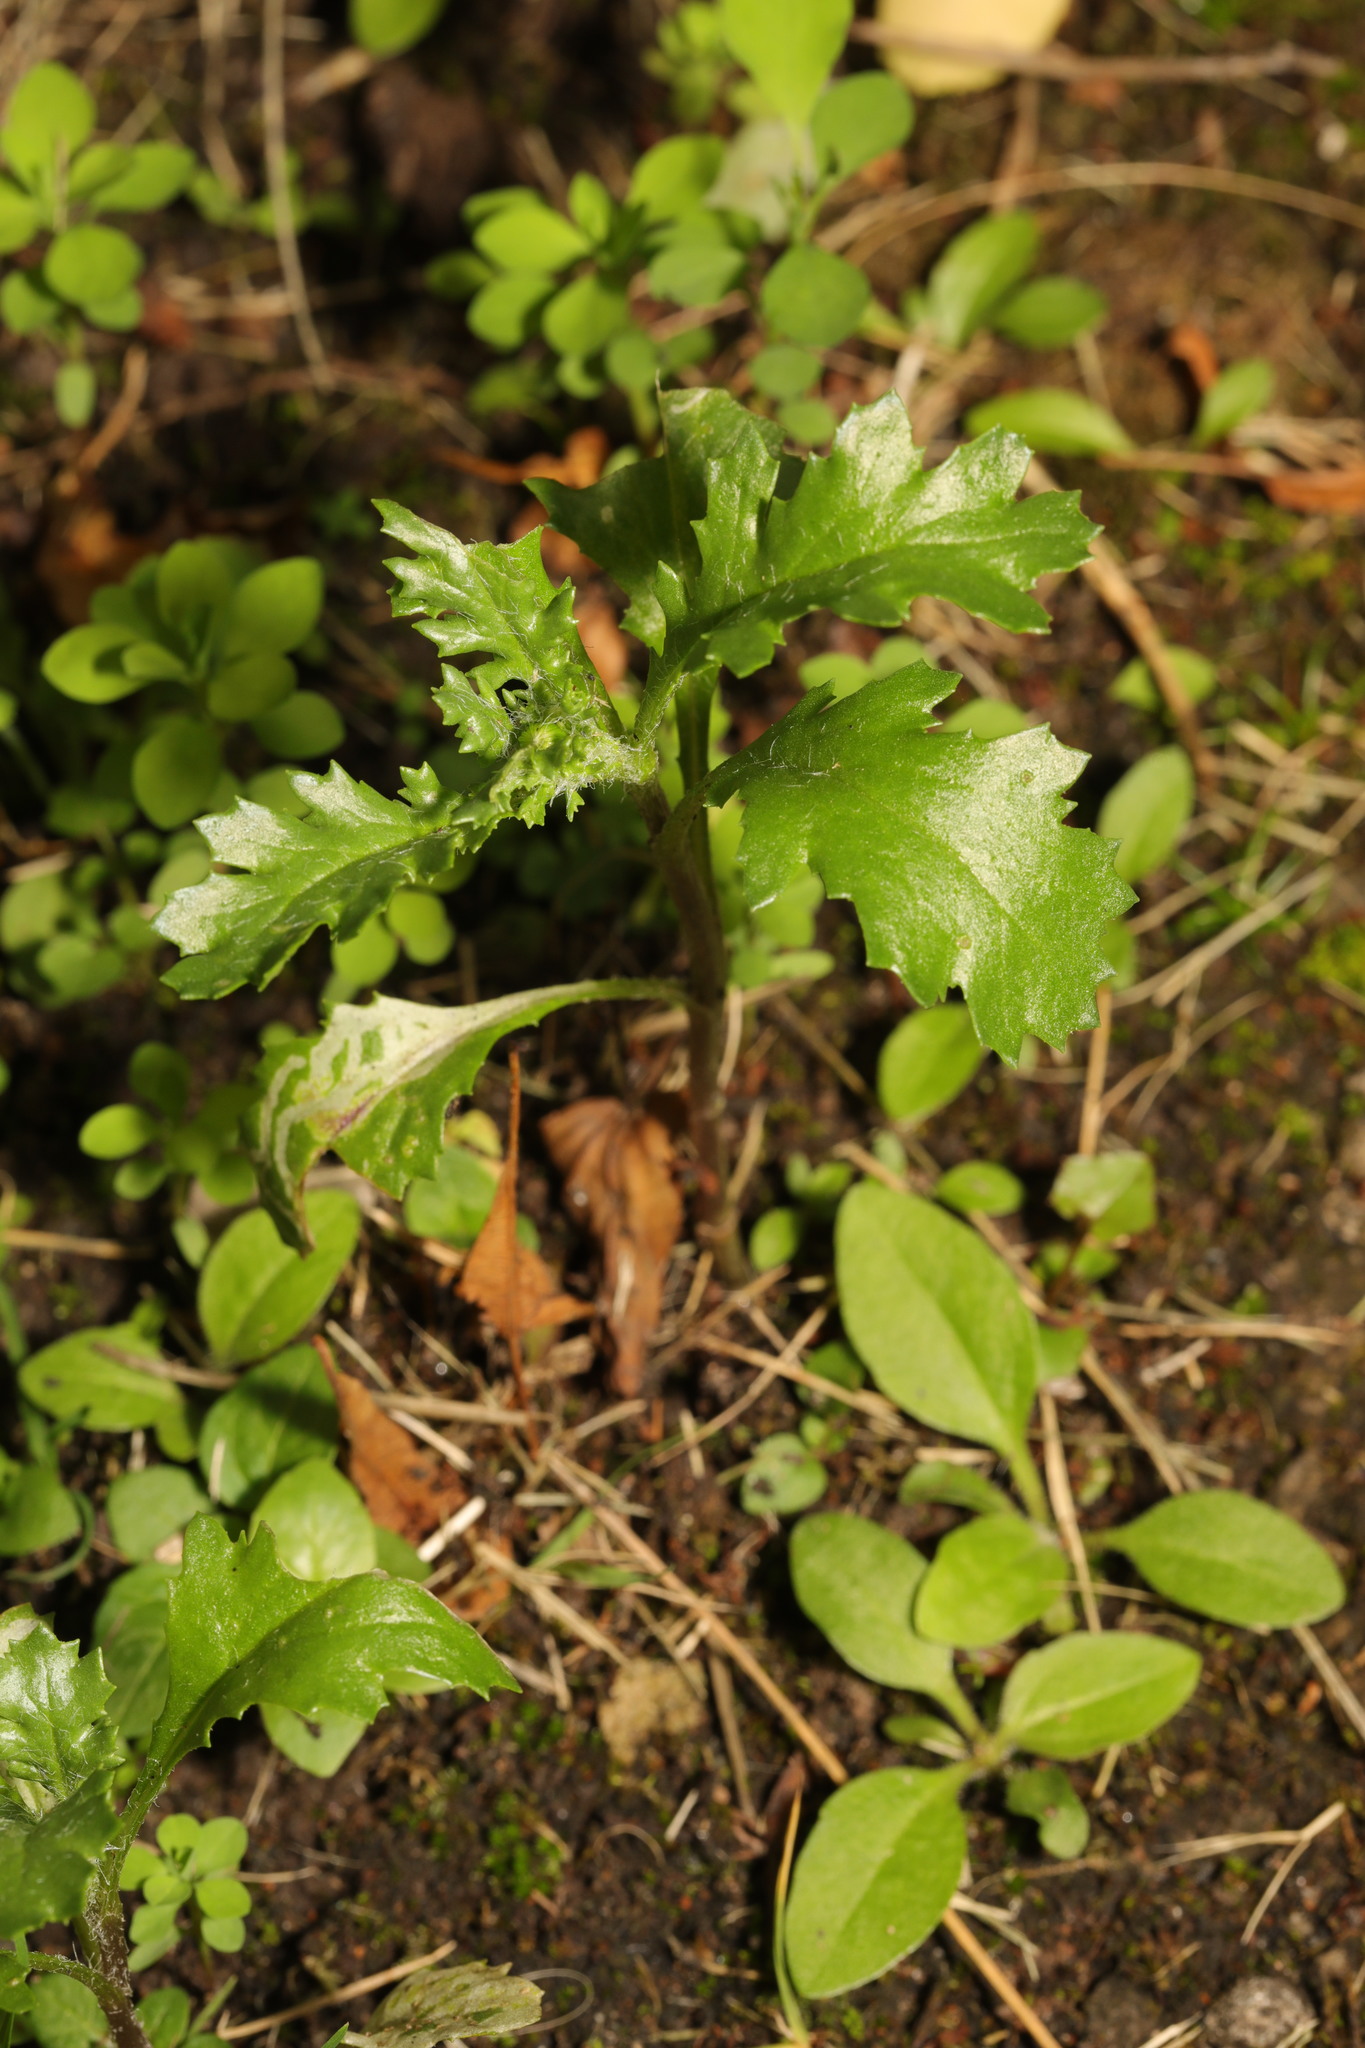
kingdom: Plantae
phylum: Tracheophyta
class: Magnoliopsida
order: Asterales
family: Asteraceae
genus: Senecio
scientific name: Senecio vulgaris
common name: Old-man-in-the-spring
